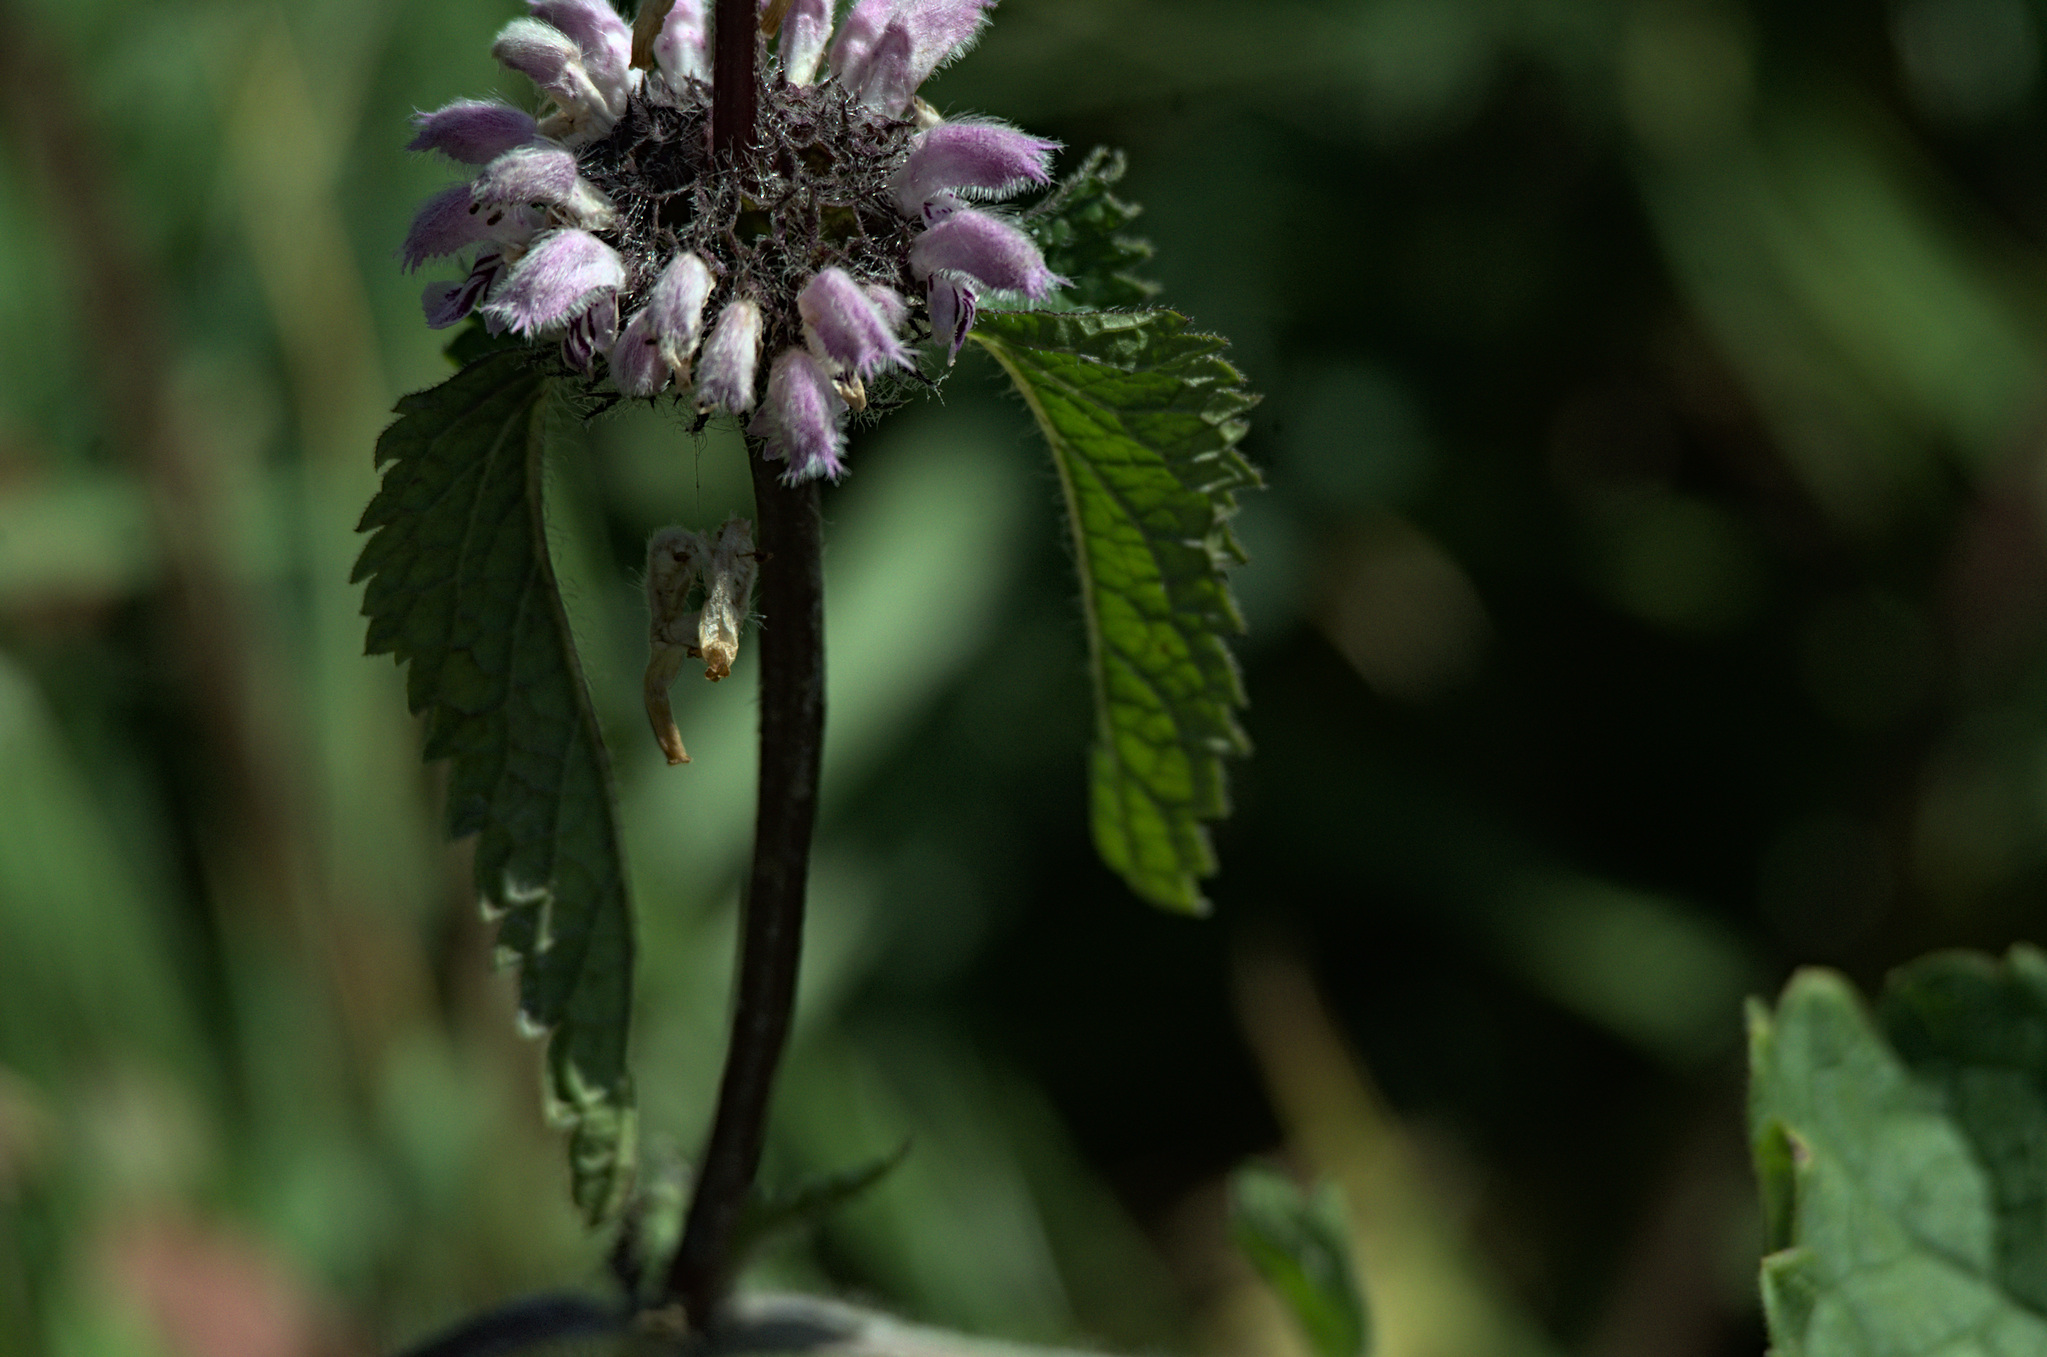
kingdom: Plantae
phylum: Tracheophyta
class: Magnoliopsida
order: Lamiales
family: Lamiaceae
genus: Phlomoides
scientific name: Phlomoides tuberosa
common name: Tuberous jerusalem sage
